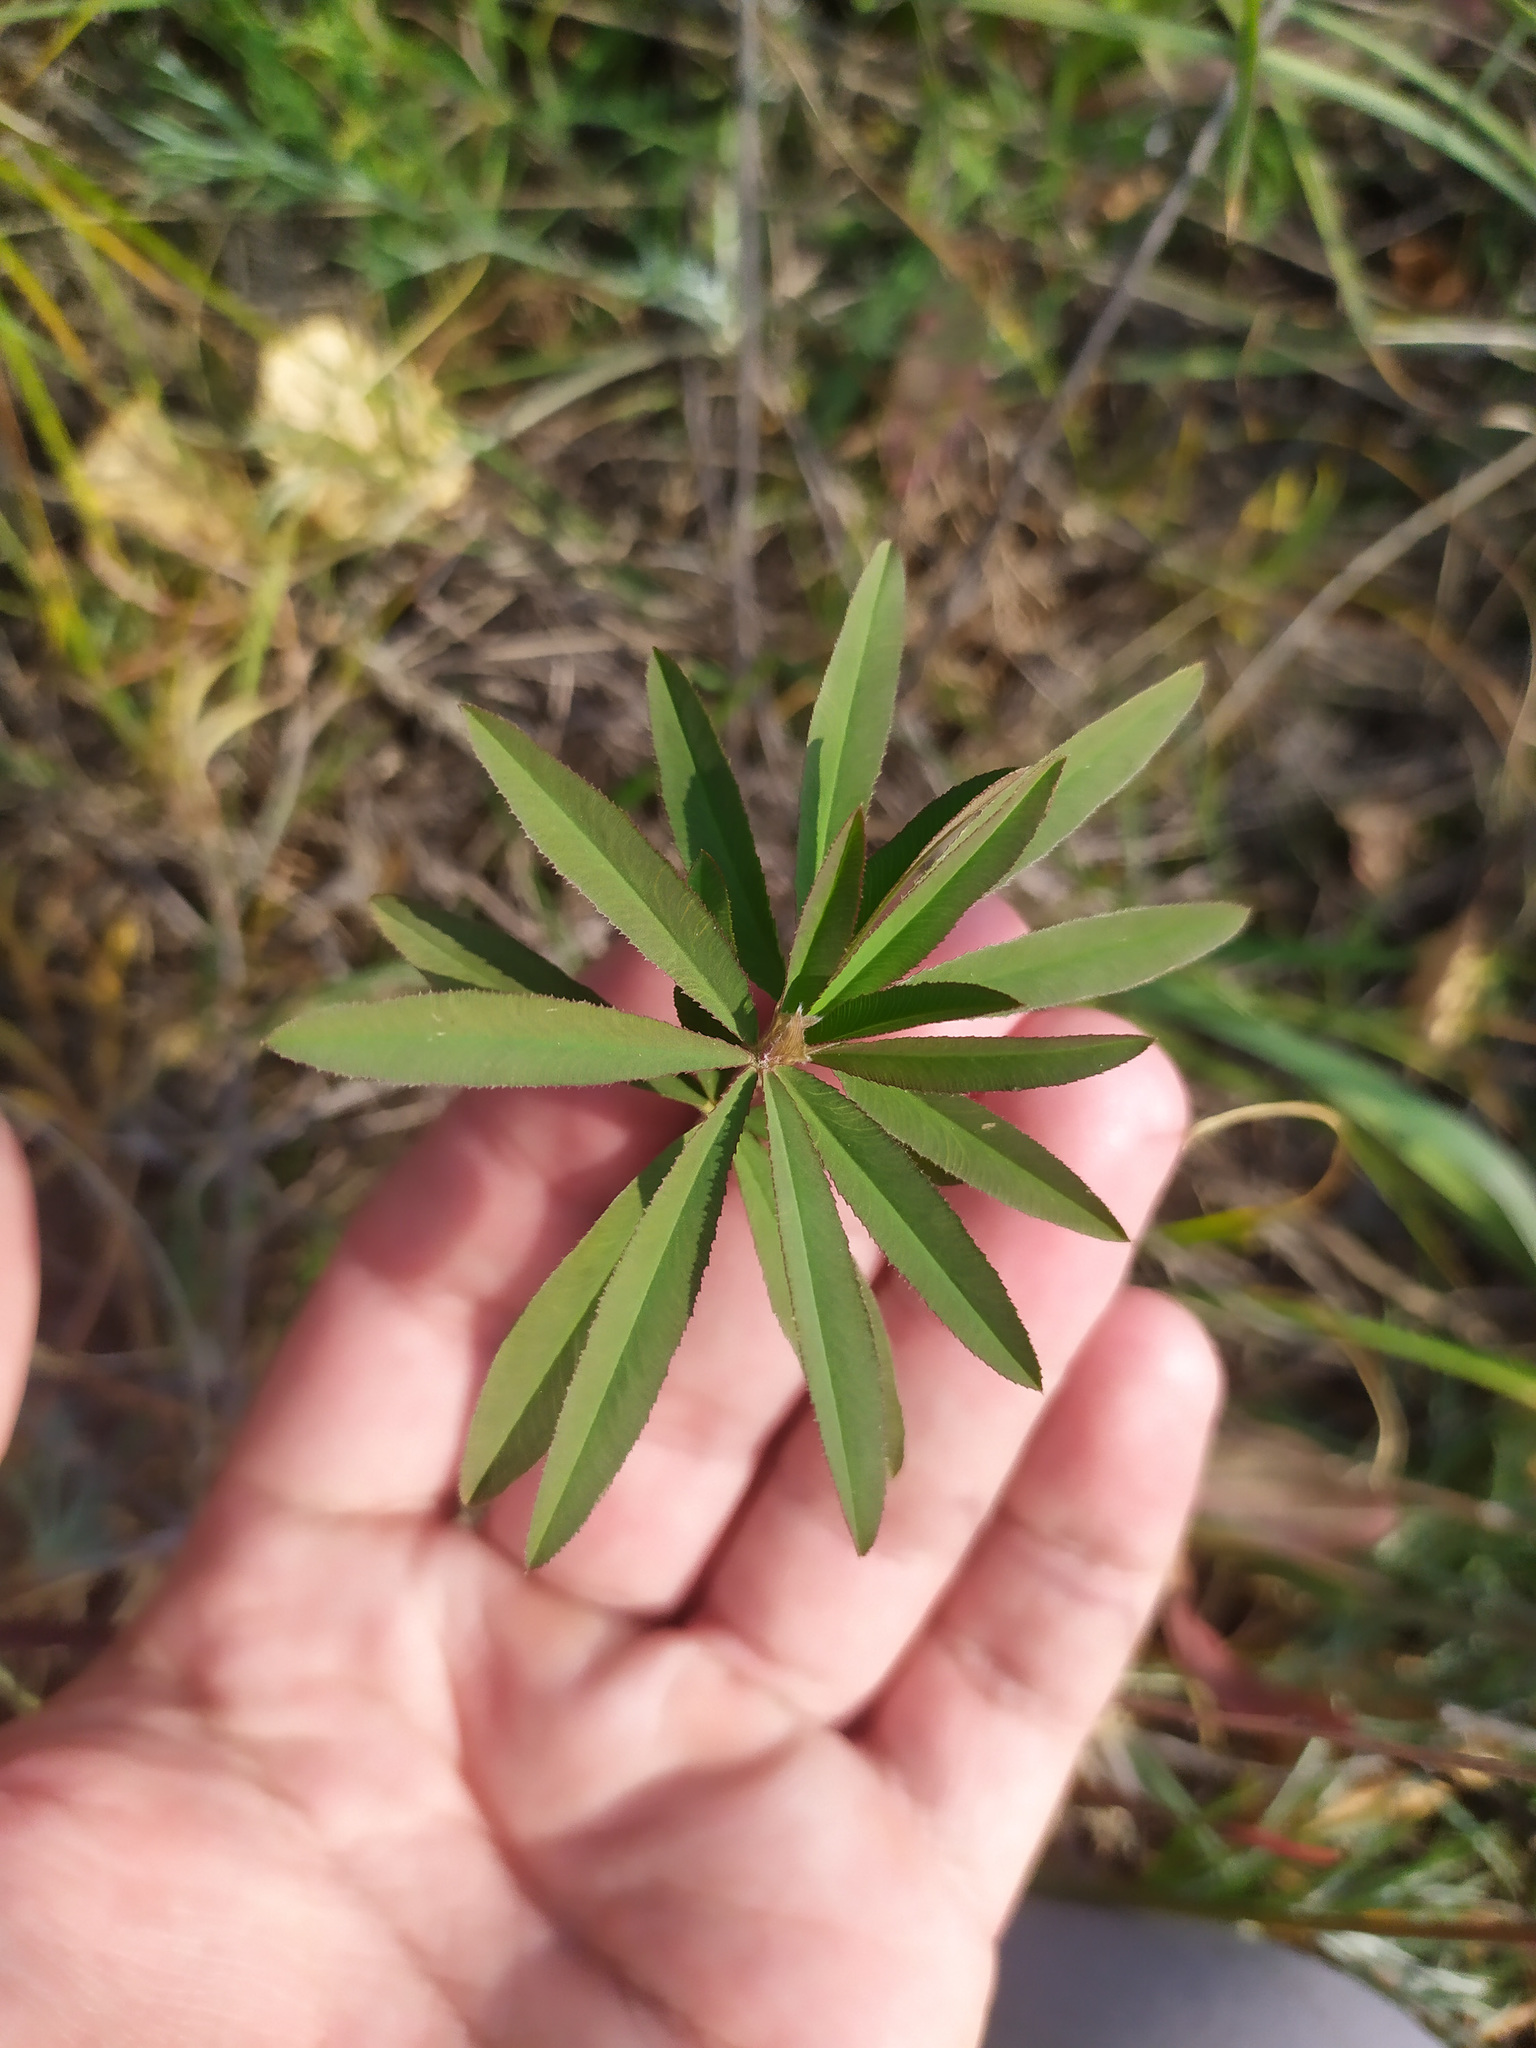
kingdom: Plantae
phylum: Tracheophyta
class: Magnoliopsida
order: Fabales
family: Fabaceae
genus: Trifolium
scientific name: Trifolium lupinaster
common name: Lupine clover
